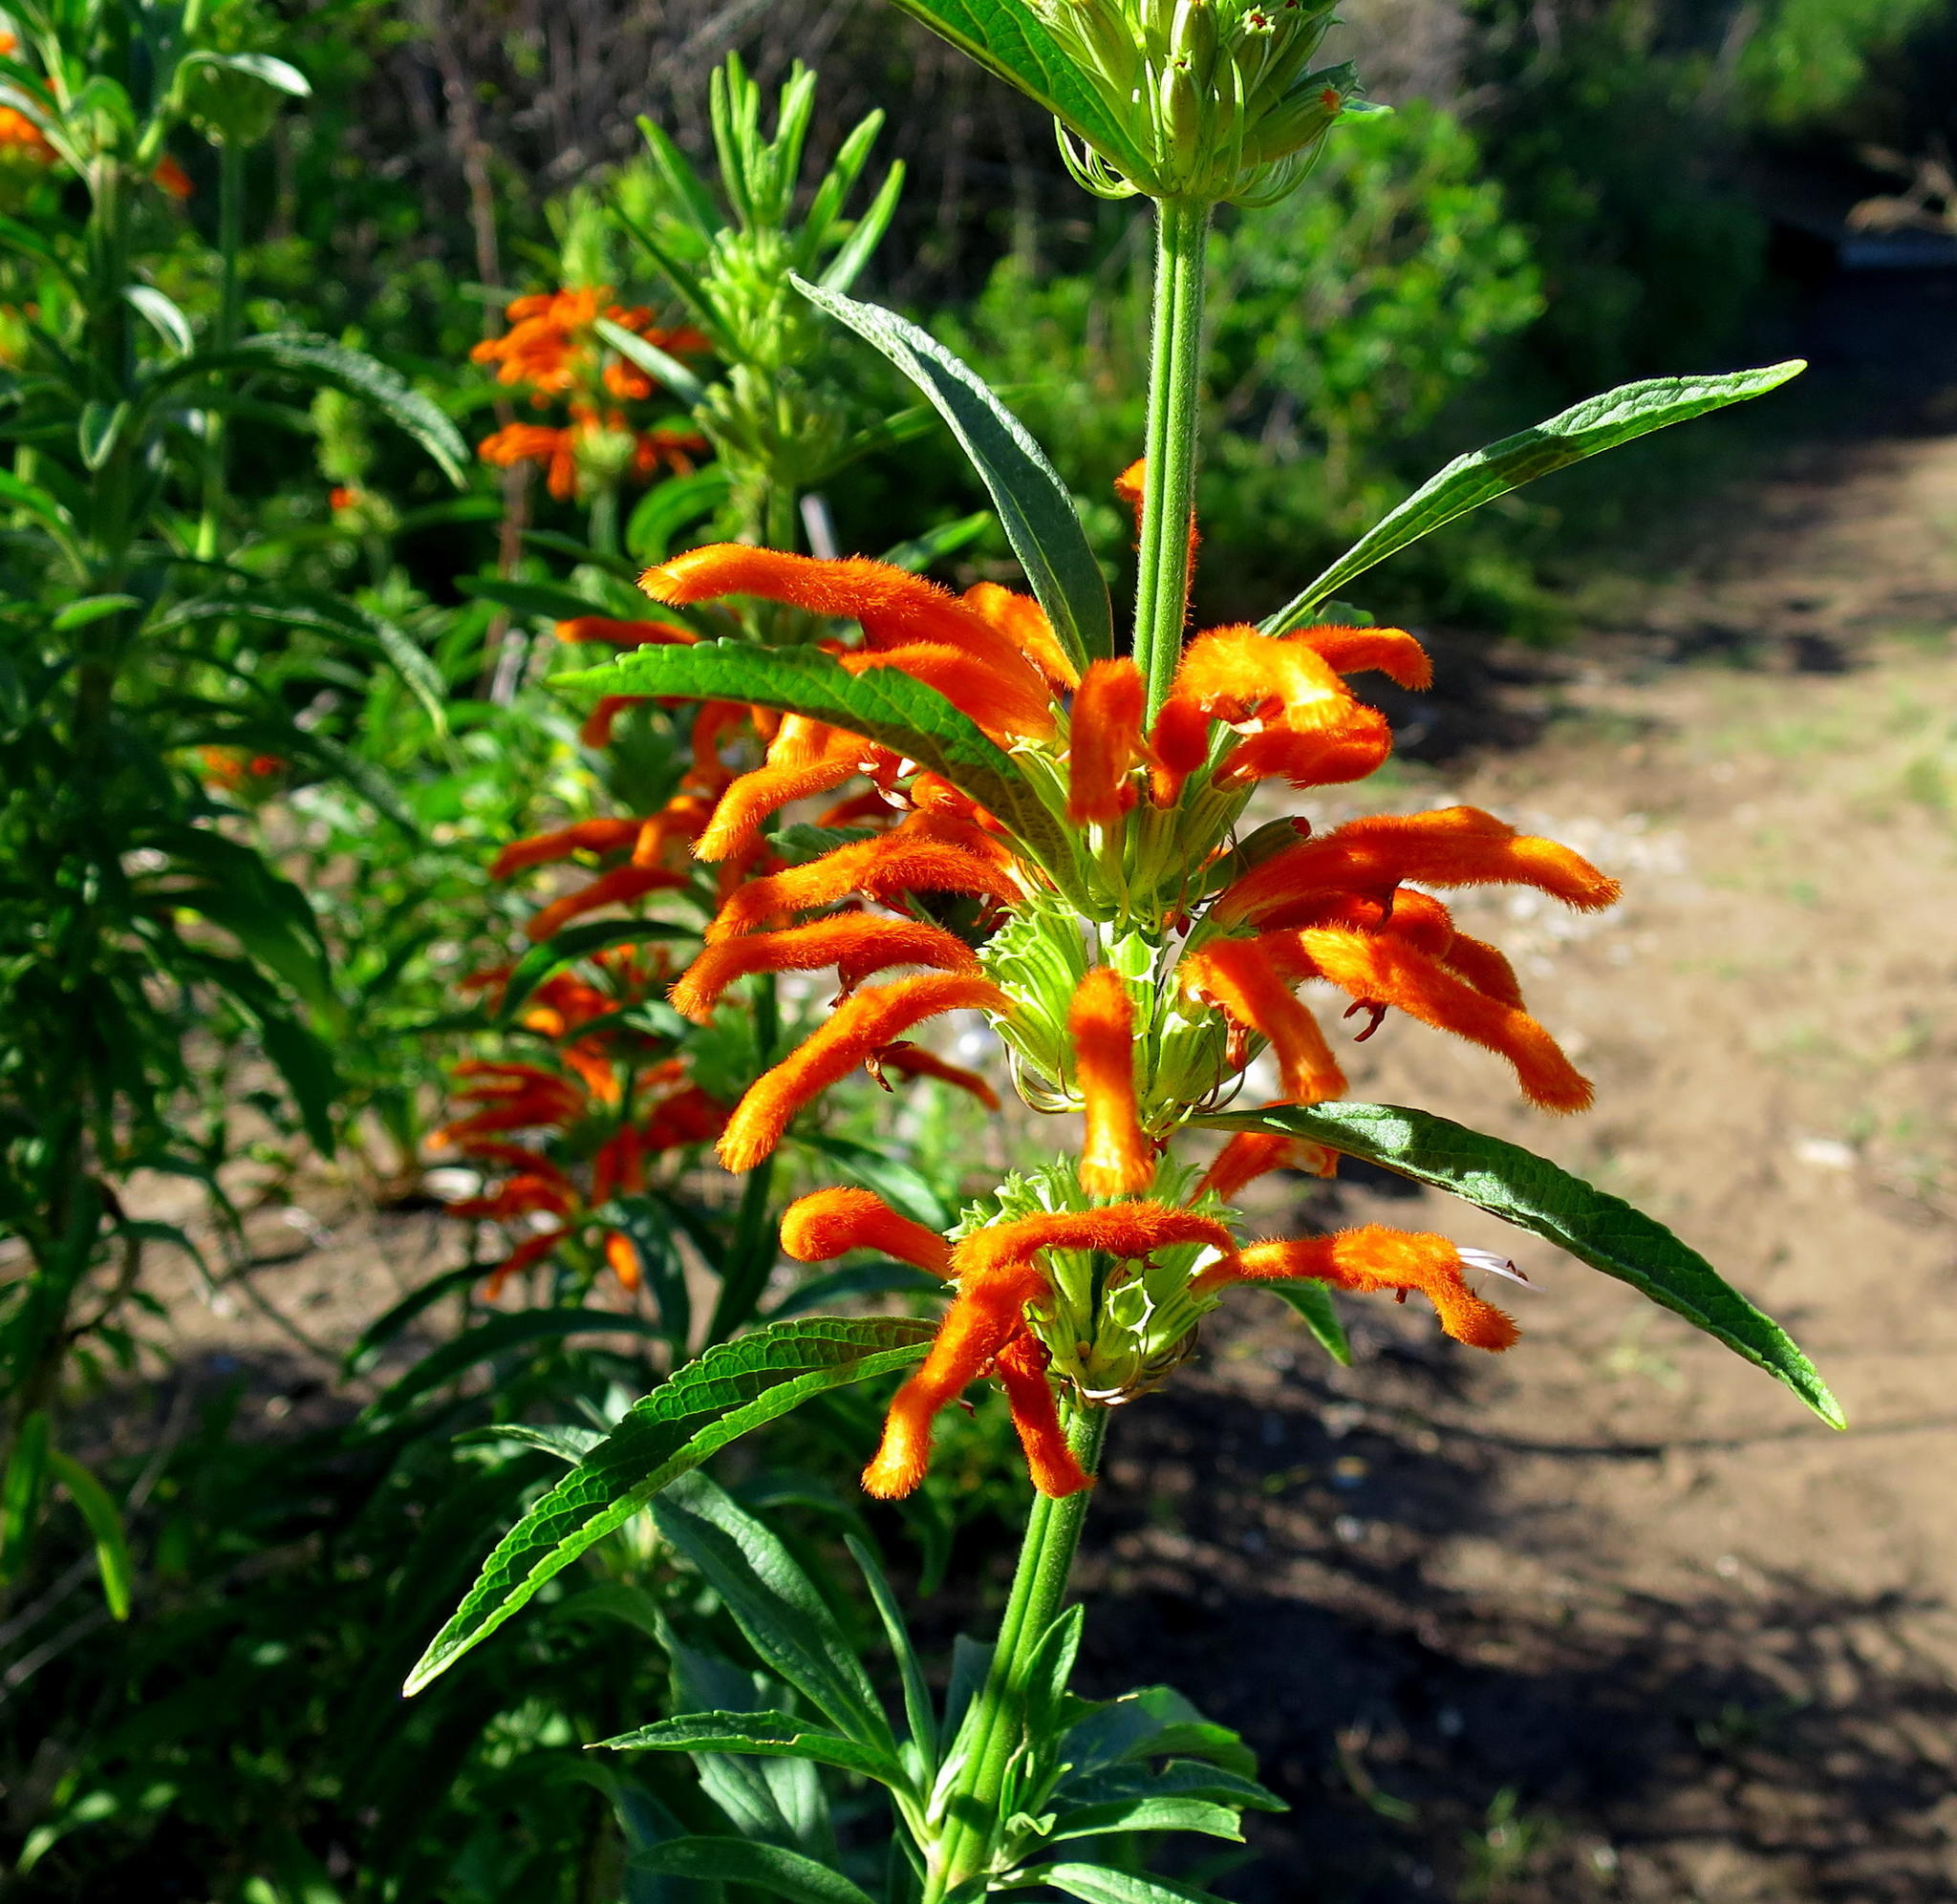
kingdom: Plantae
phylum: Tracheophyta
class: Magnoliopsida
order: Lamiales
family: Lamiaceae
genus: Leonotis
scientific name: Leonotis leonurus
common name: Lion's ear
